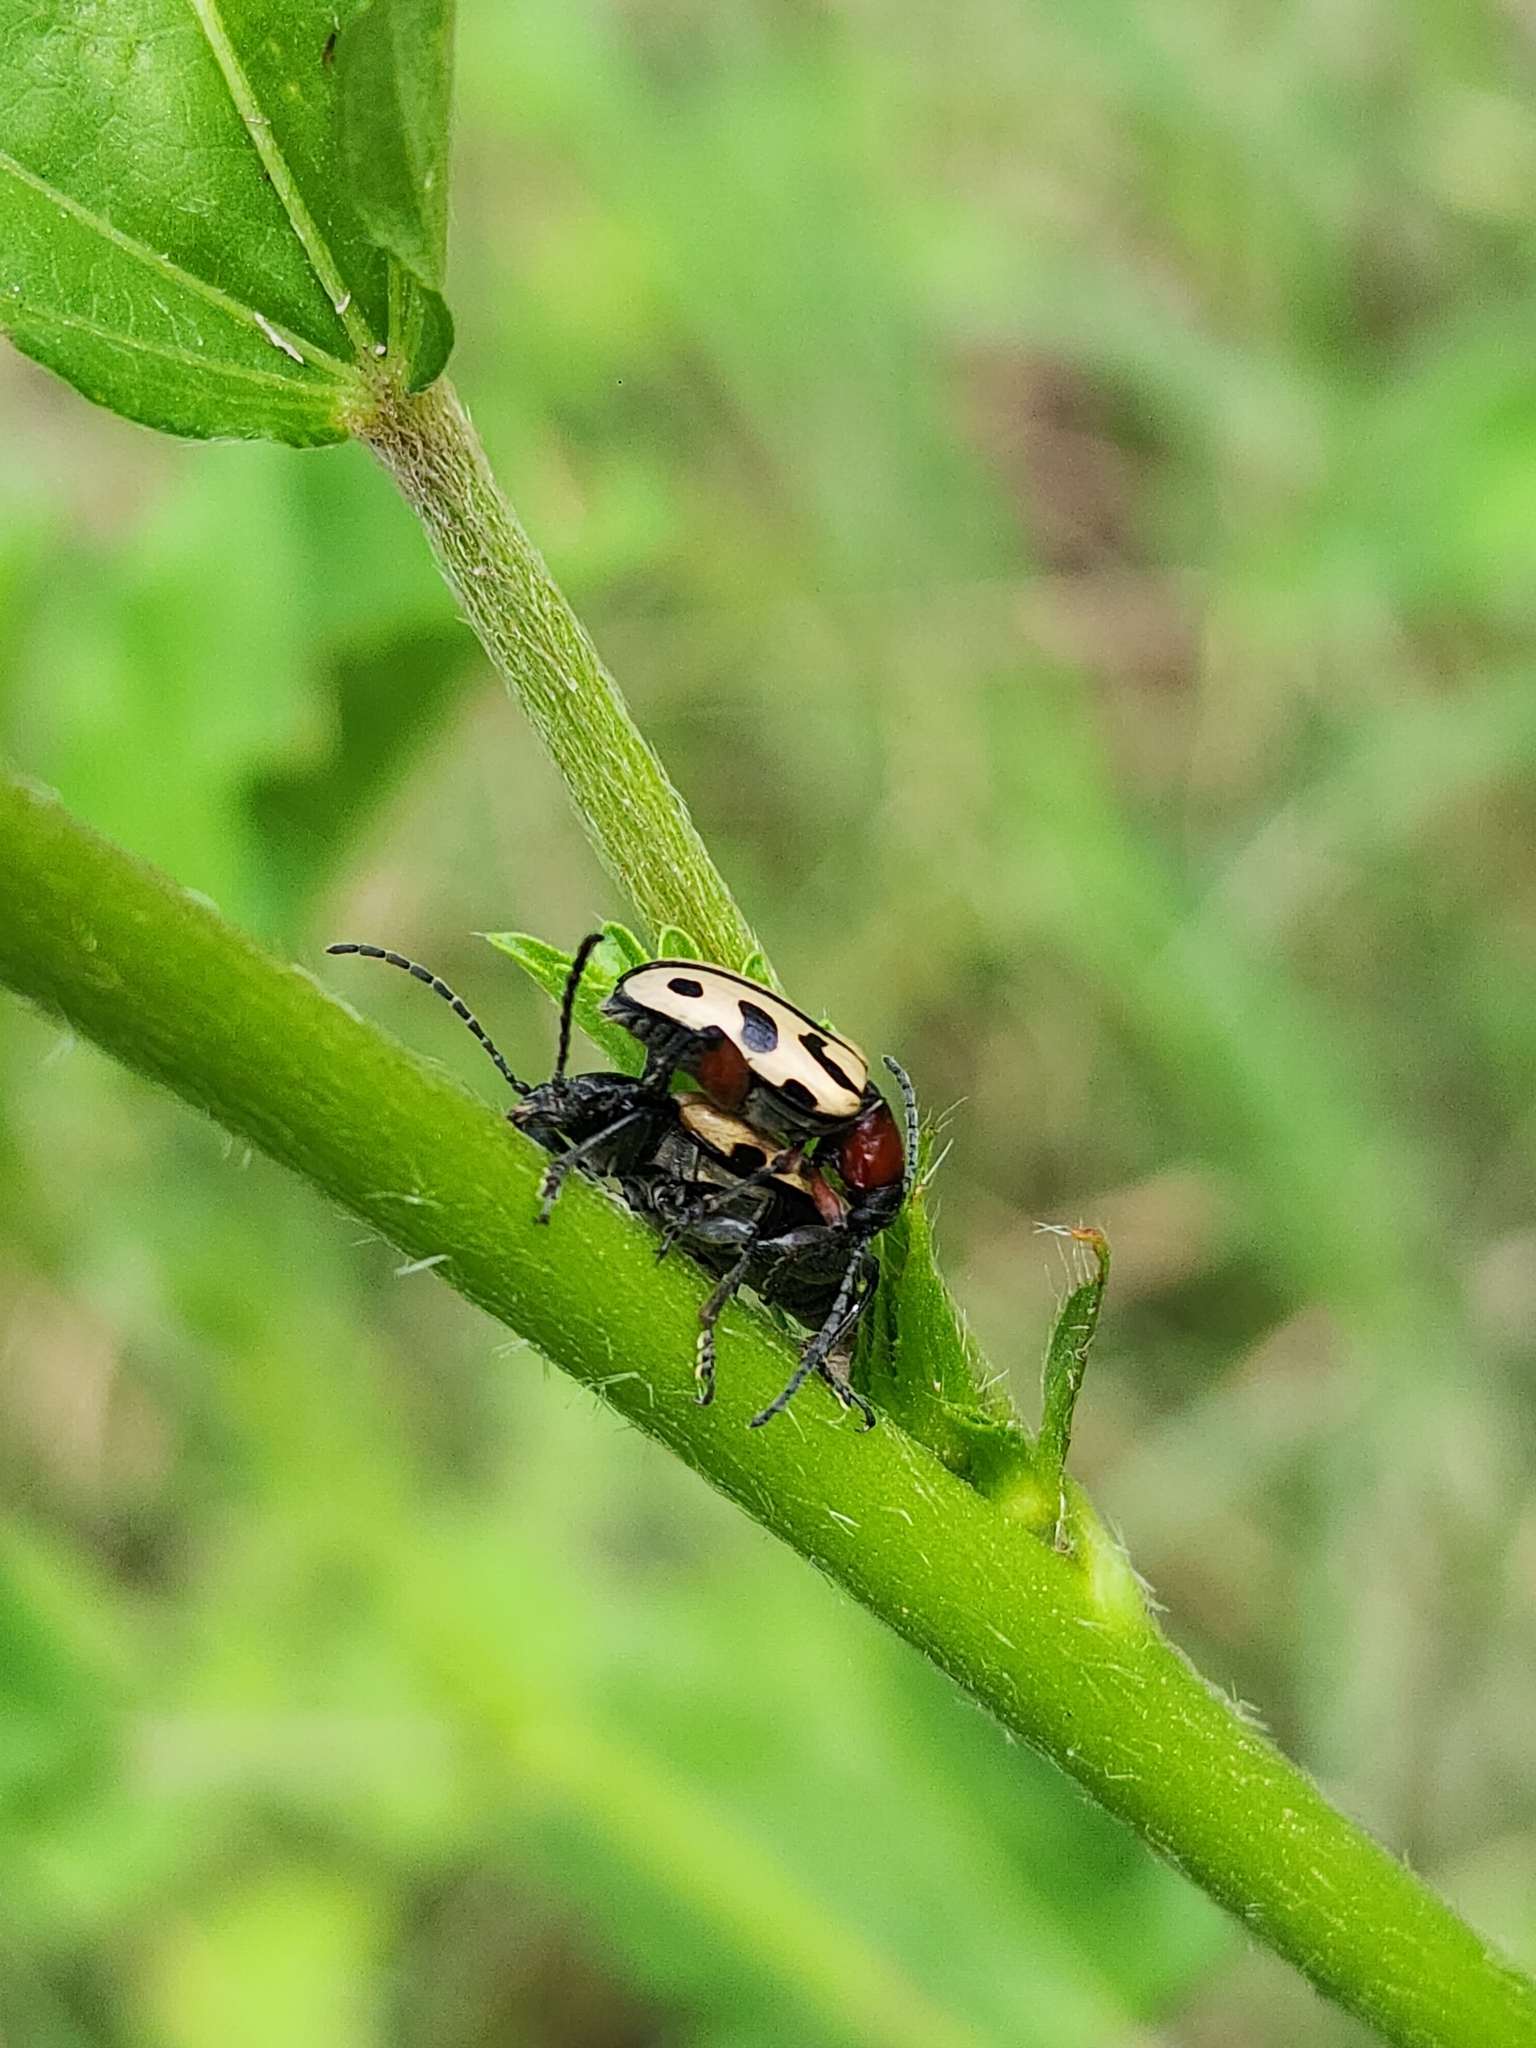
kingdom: Animalia
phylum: Arthropoda
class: Insecta
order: Coleoptera
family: Chrysomelidae
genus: Atalasis
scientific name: Atalasis
